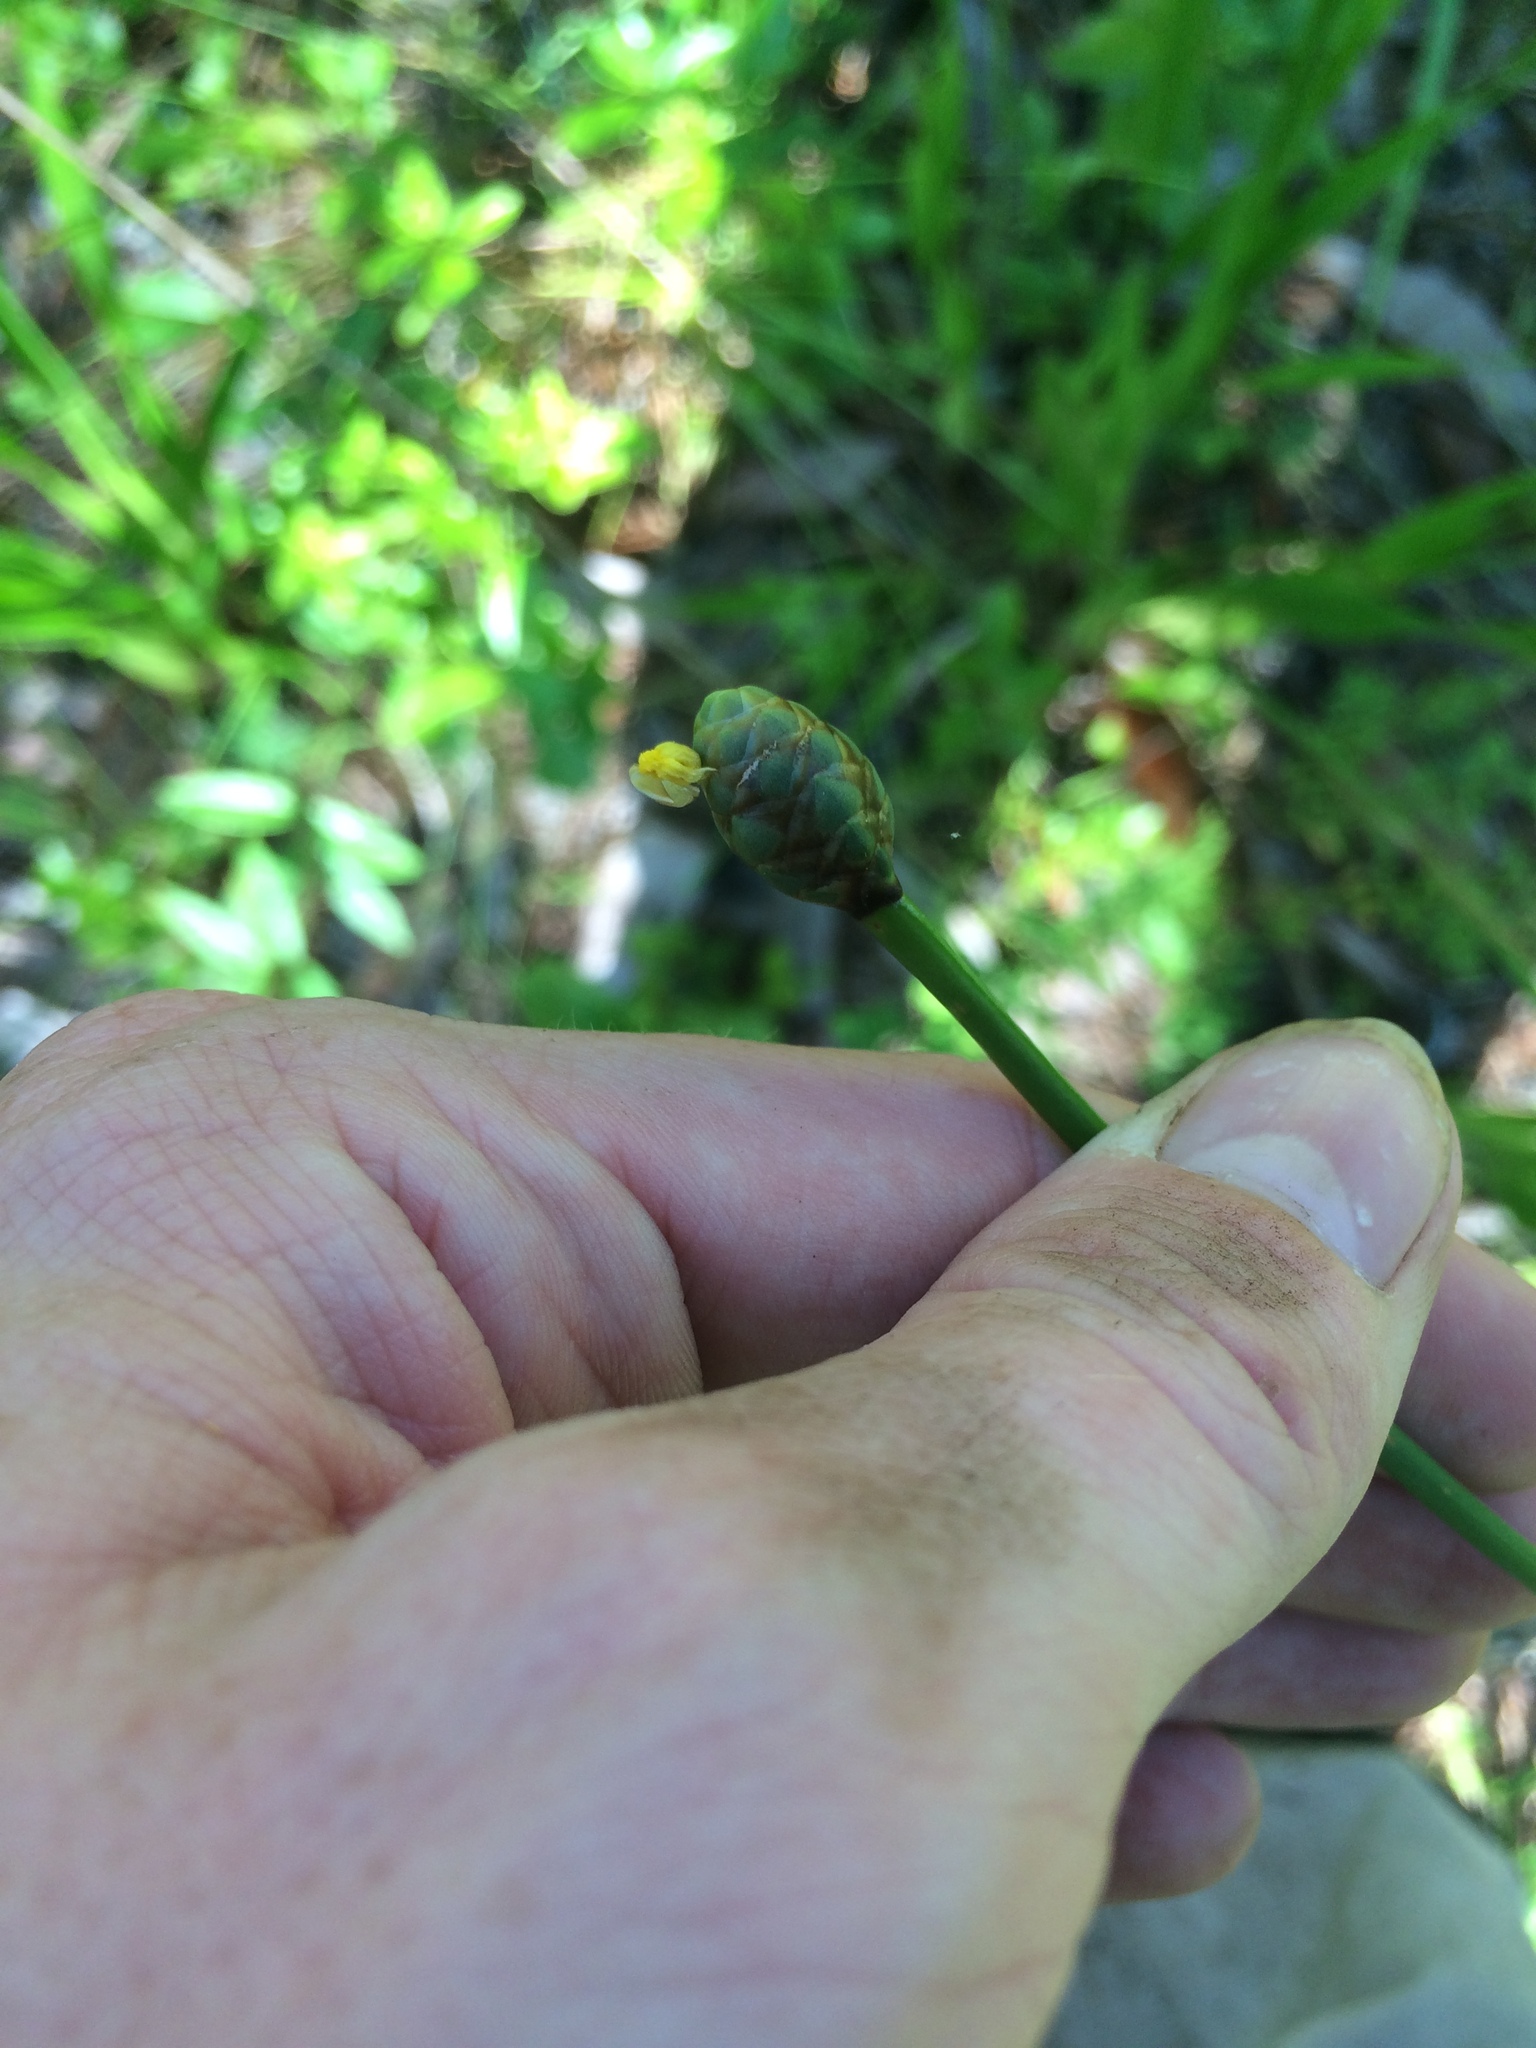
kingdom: Plantae
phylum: Tracheophyta
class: Liliopsida
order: Poales
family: Xyridaceae
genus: Xyris
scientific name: Xyris platylepis
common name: Tall yelloweyed grass
